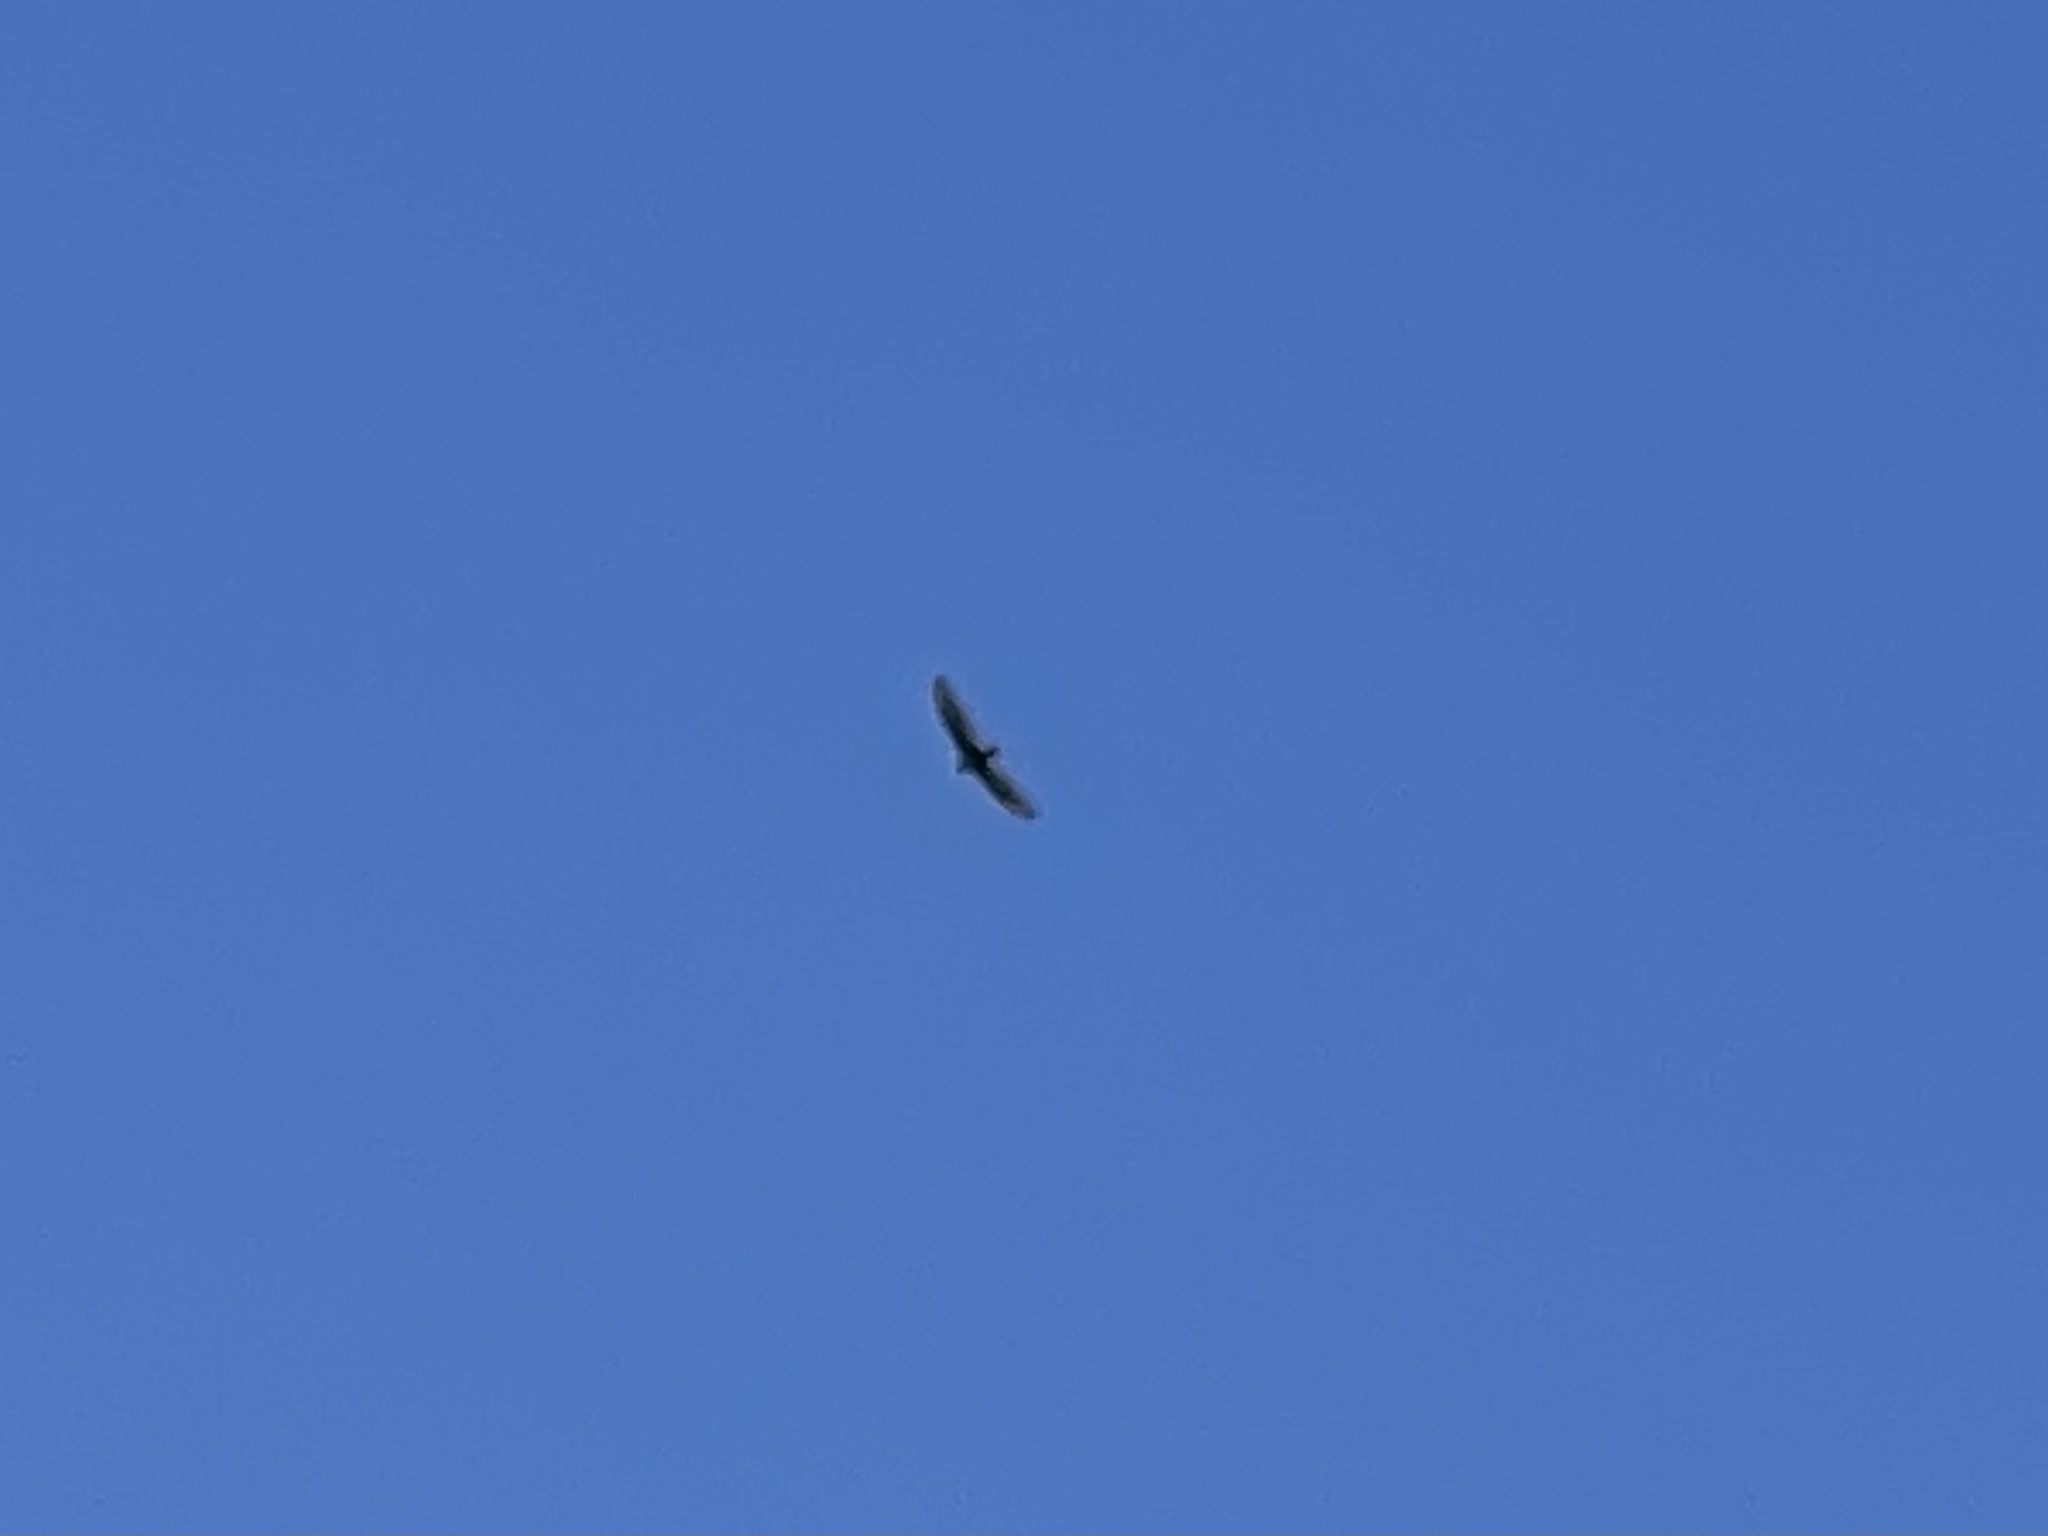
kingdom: Animalia
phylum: Chordata
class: Aves
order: Accipitriformes
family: Cathartidae
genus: Cathartes
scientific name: Cathartes aura
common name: Turkey vulture
